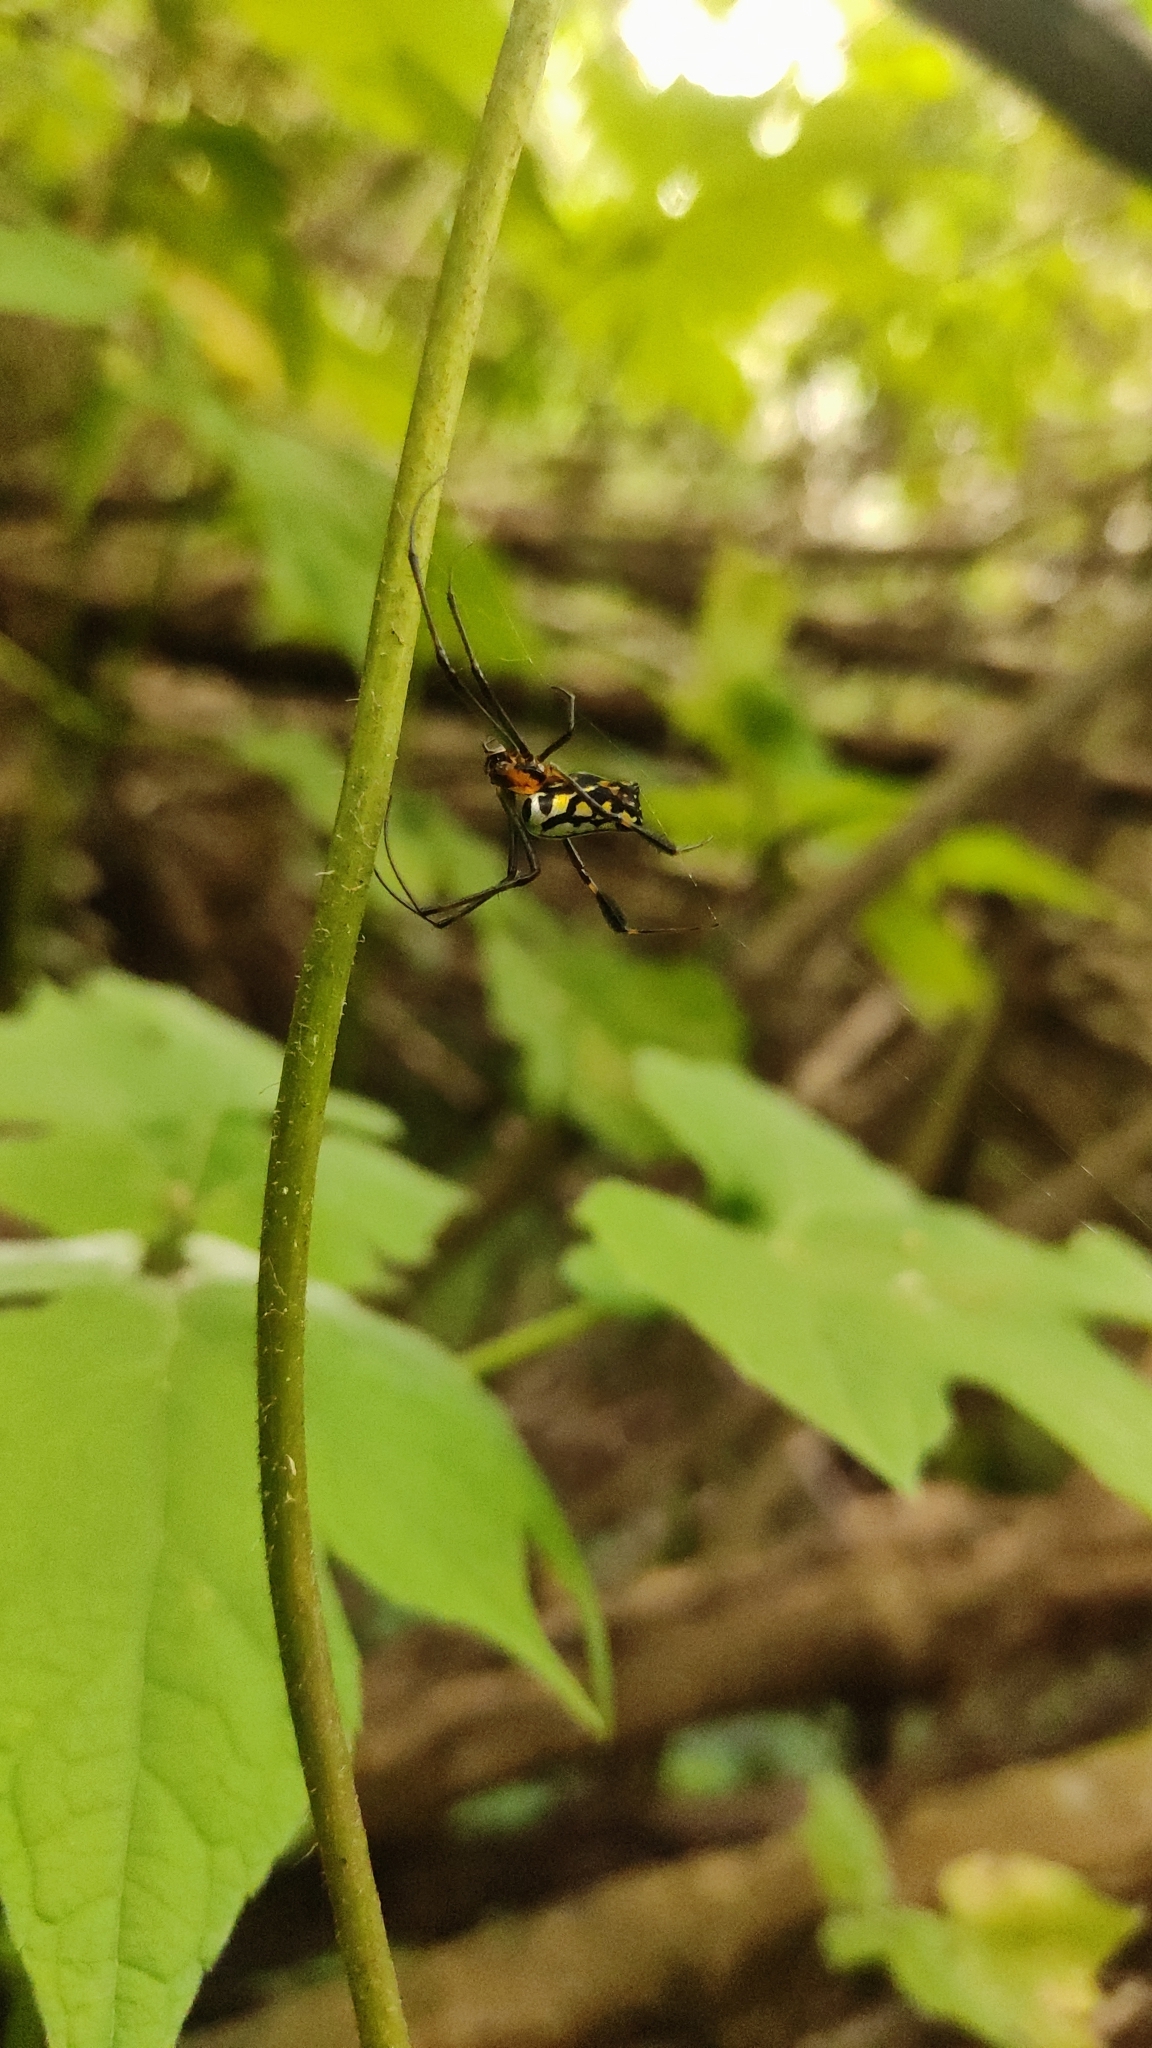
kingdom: Animalia
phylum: Arthropoda
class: Arachnida
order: Araneae
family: Tetragnathidae
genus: Leucauge
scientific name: Leucauge tessellata
